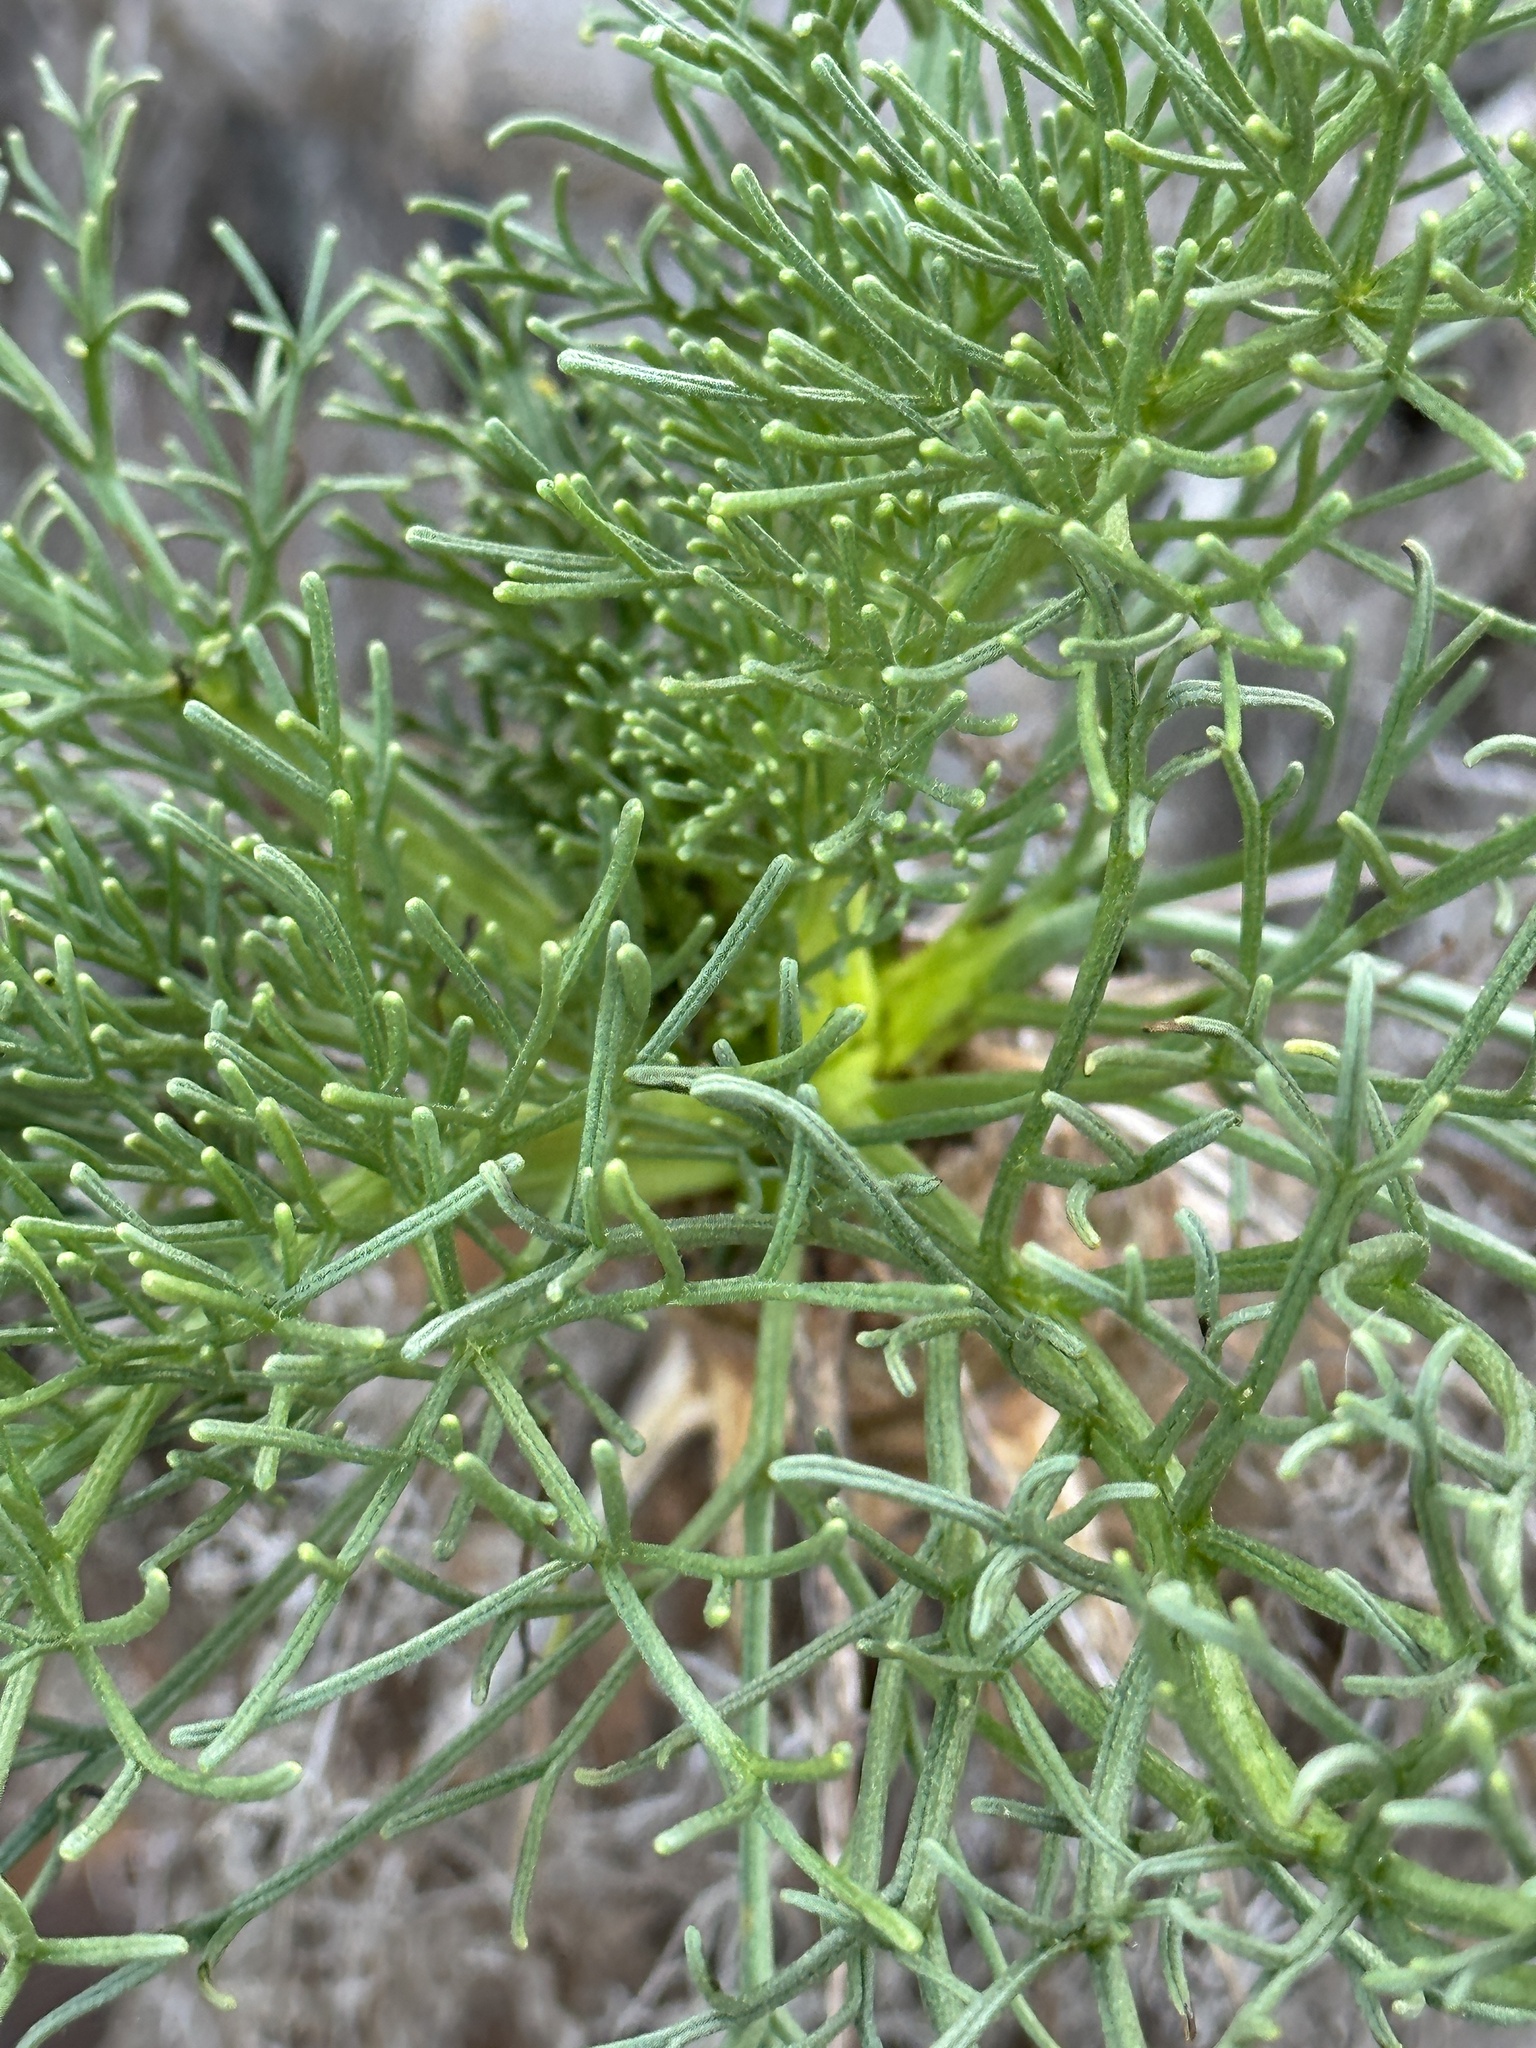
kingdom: Plantae
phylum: Tracheophyta
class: Magnoliopsida
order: Asterales
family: Asteraceae
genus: Coreopsis
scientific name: Coreopsis gigantea
